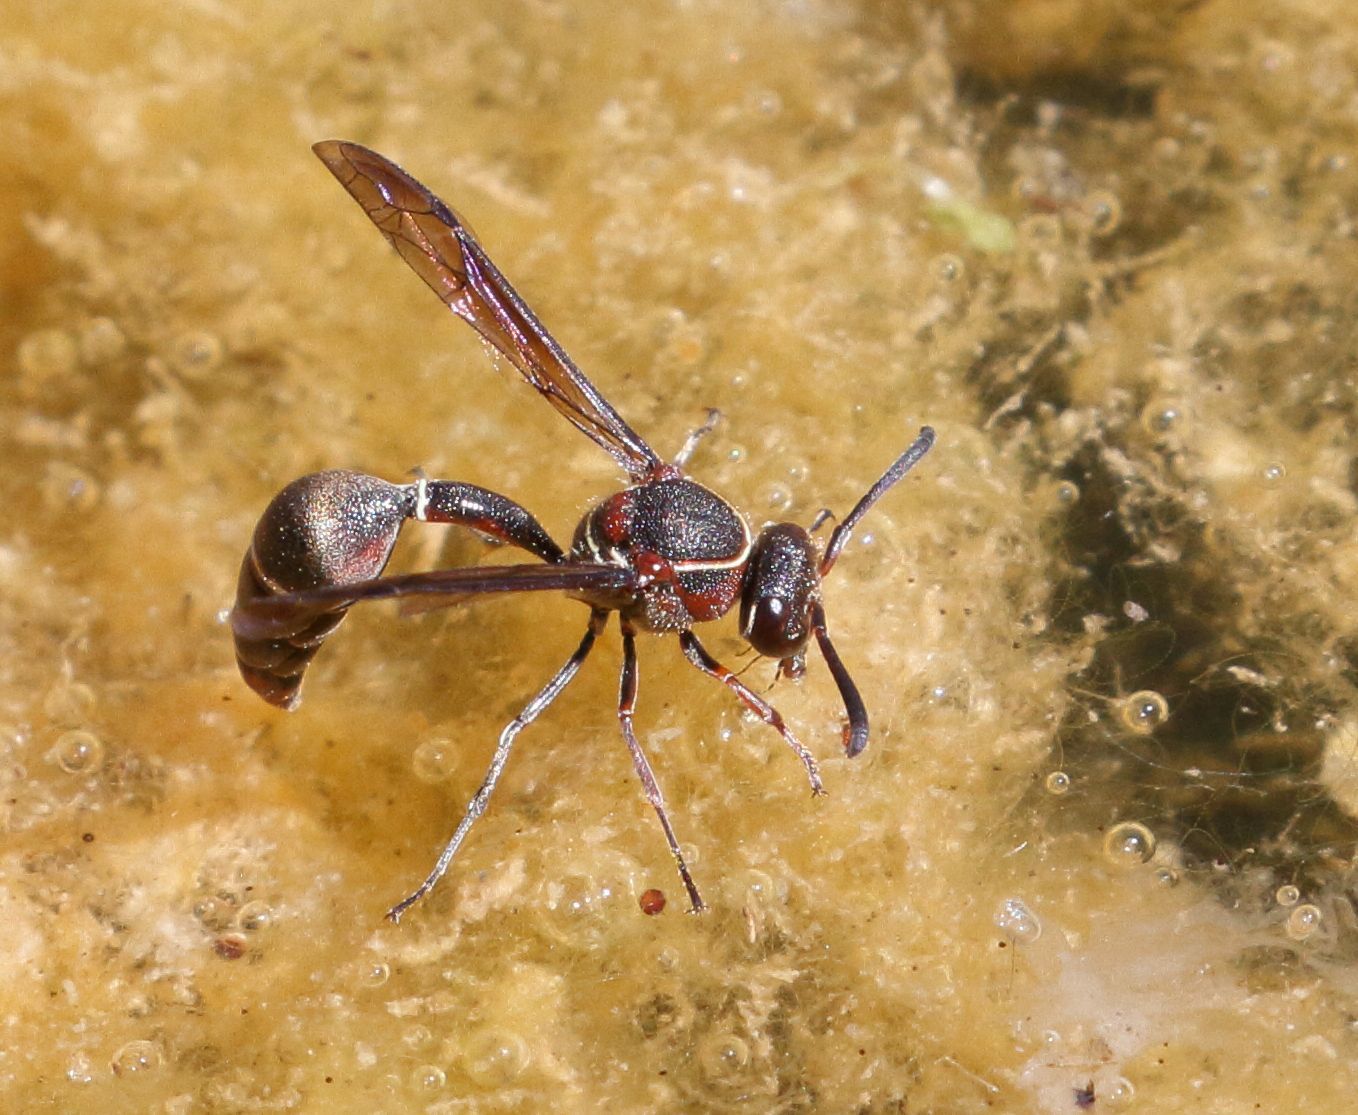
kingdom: Animalia
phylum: Arthropoda
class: Insecta
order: Hymenoptera
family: Vespidae
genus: Eumenes
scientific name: Eumenes
